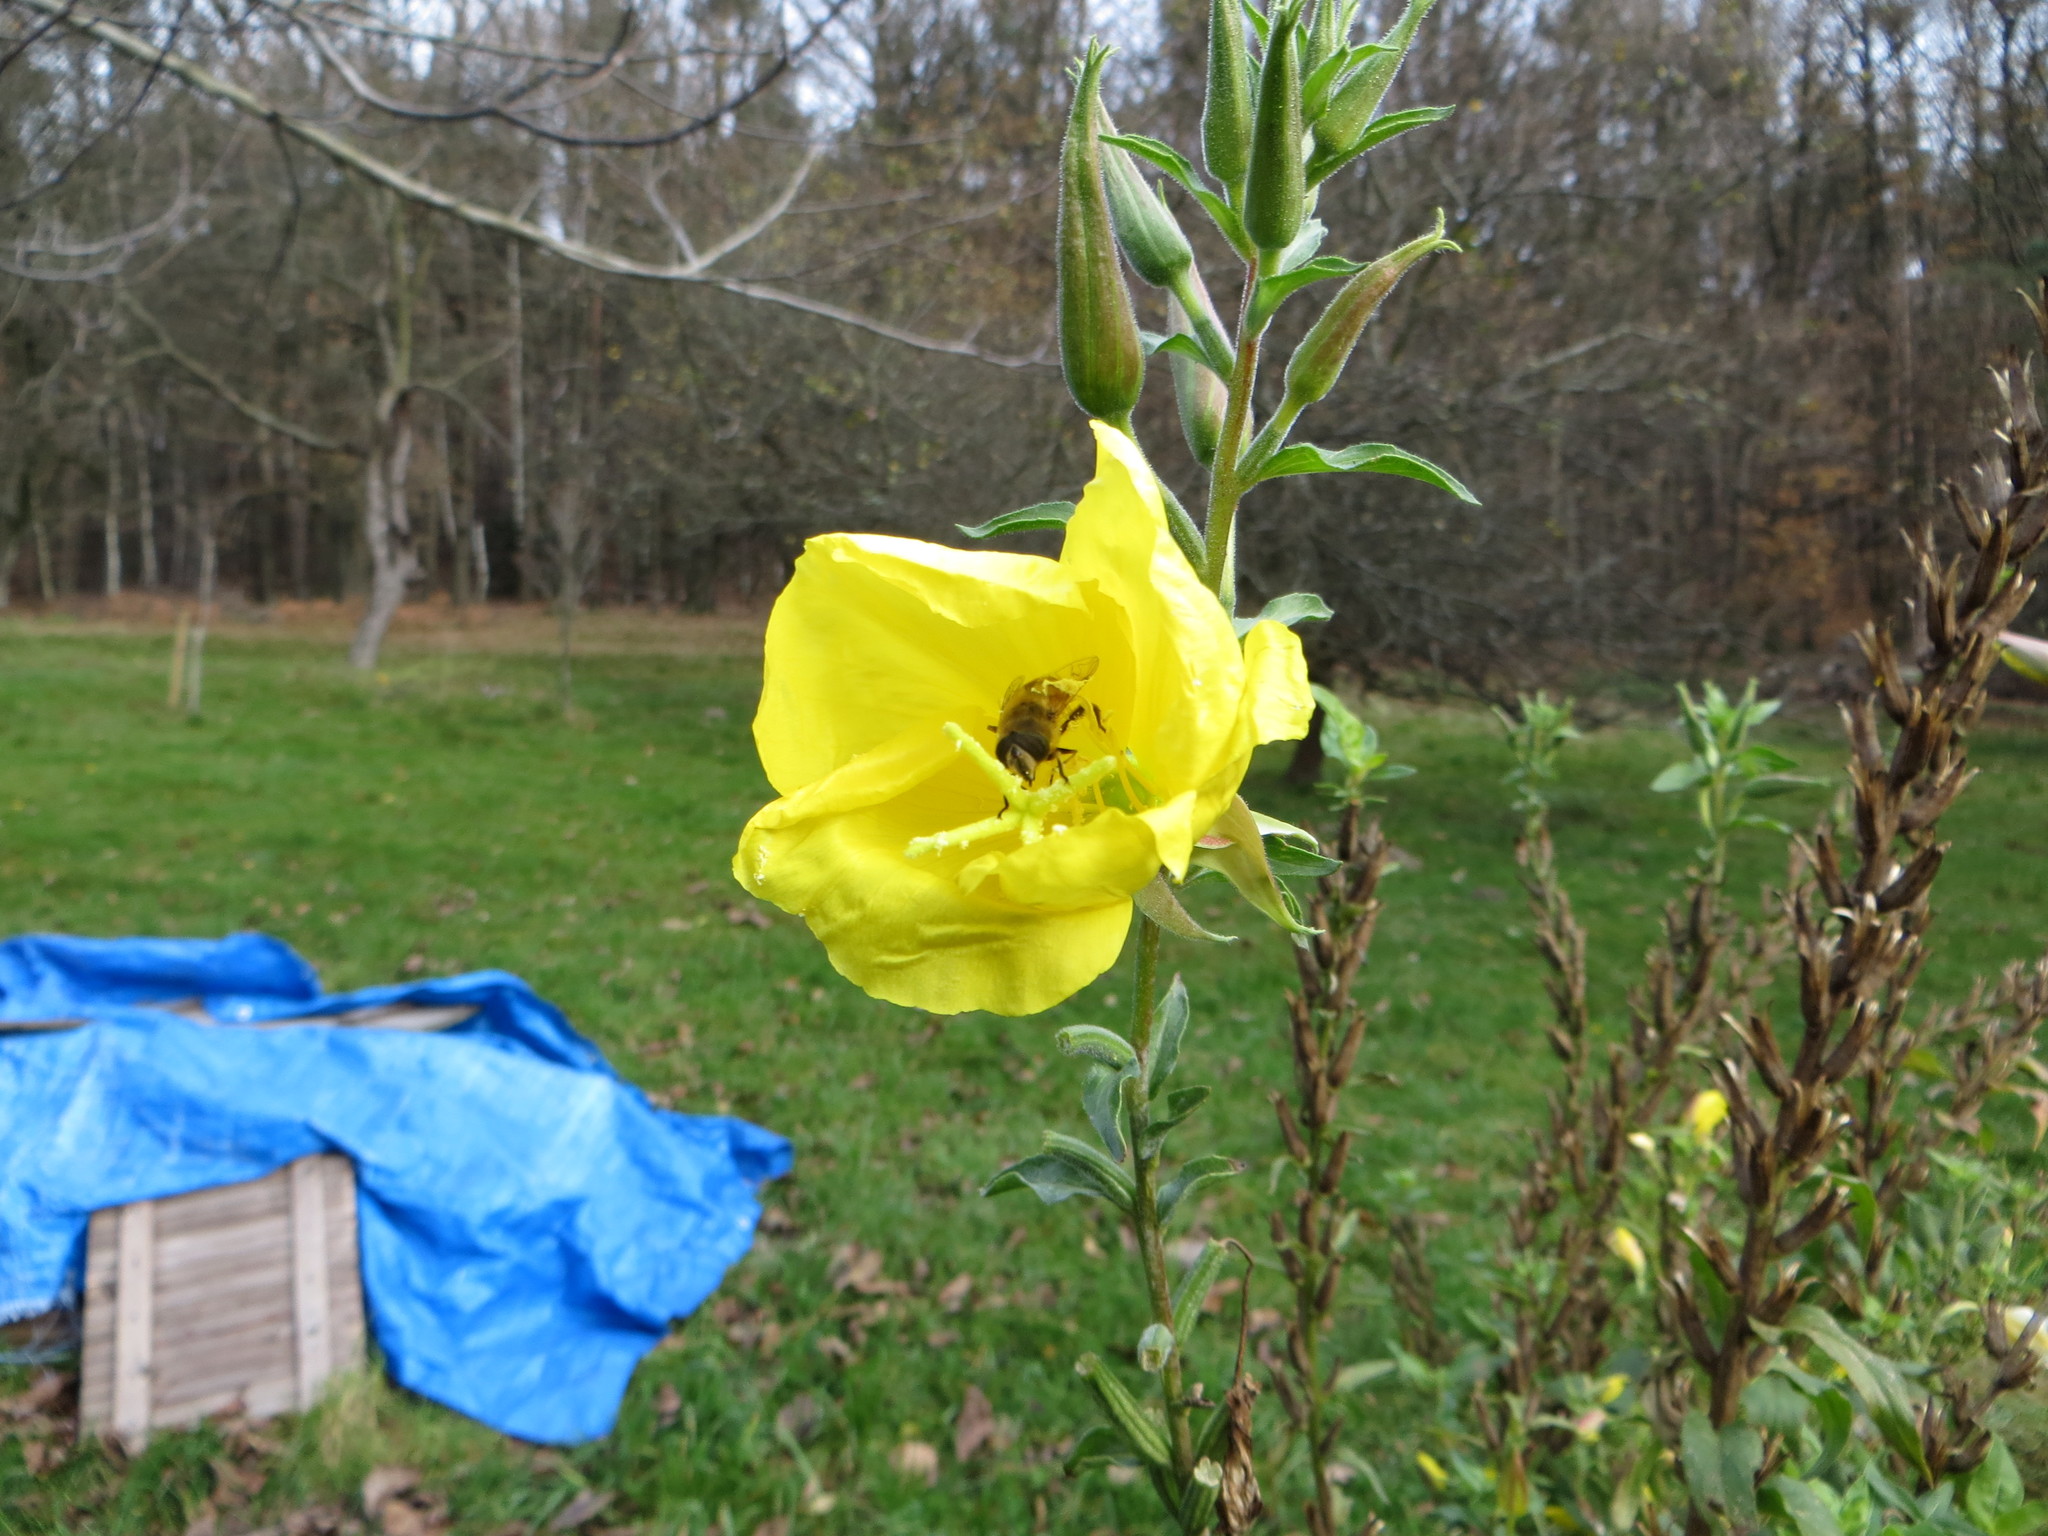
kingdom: Animalia
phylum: Arthropoda
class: Insecta
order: Diptera
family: Syrphidae
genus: Eristalis
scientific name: Eristalis tenax
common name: Drone fly
